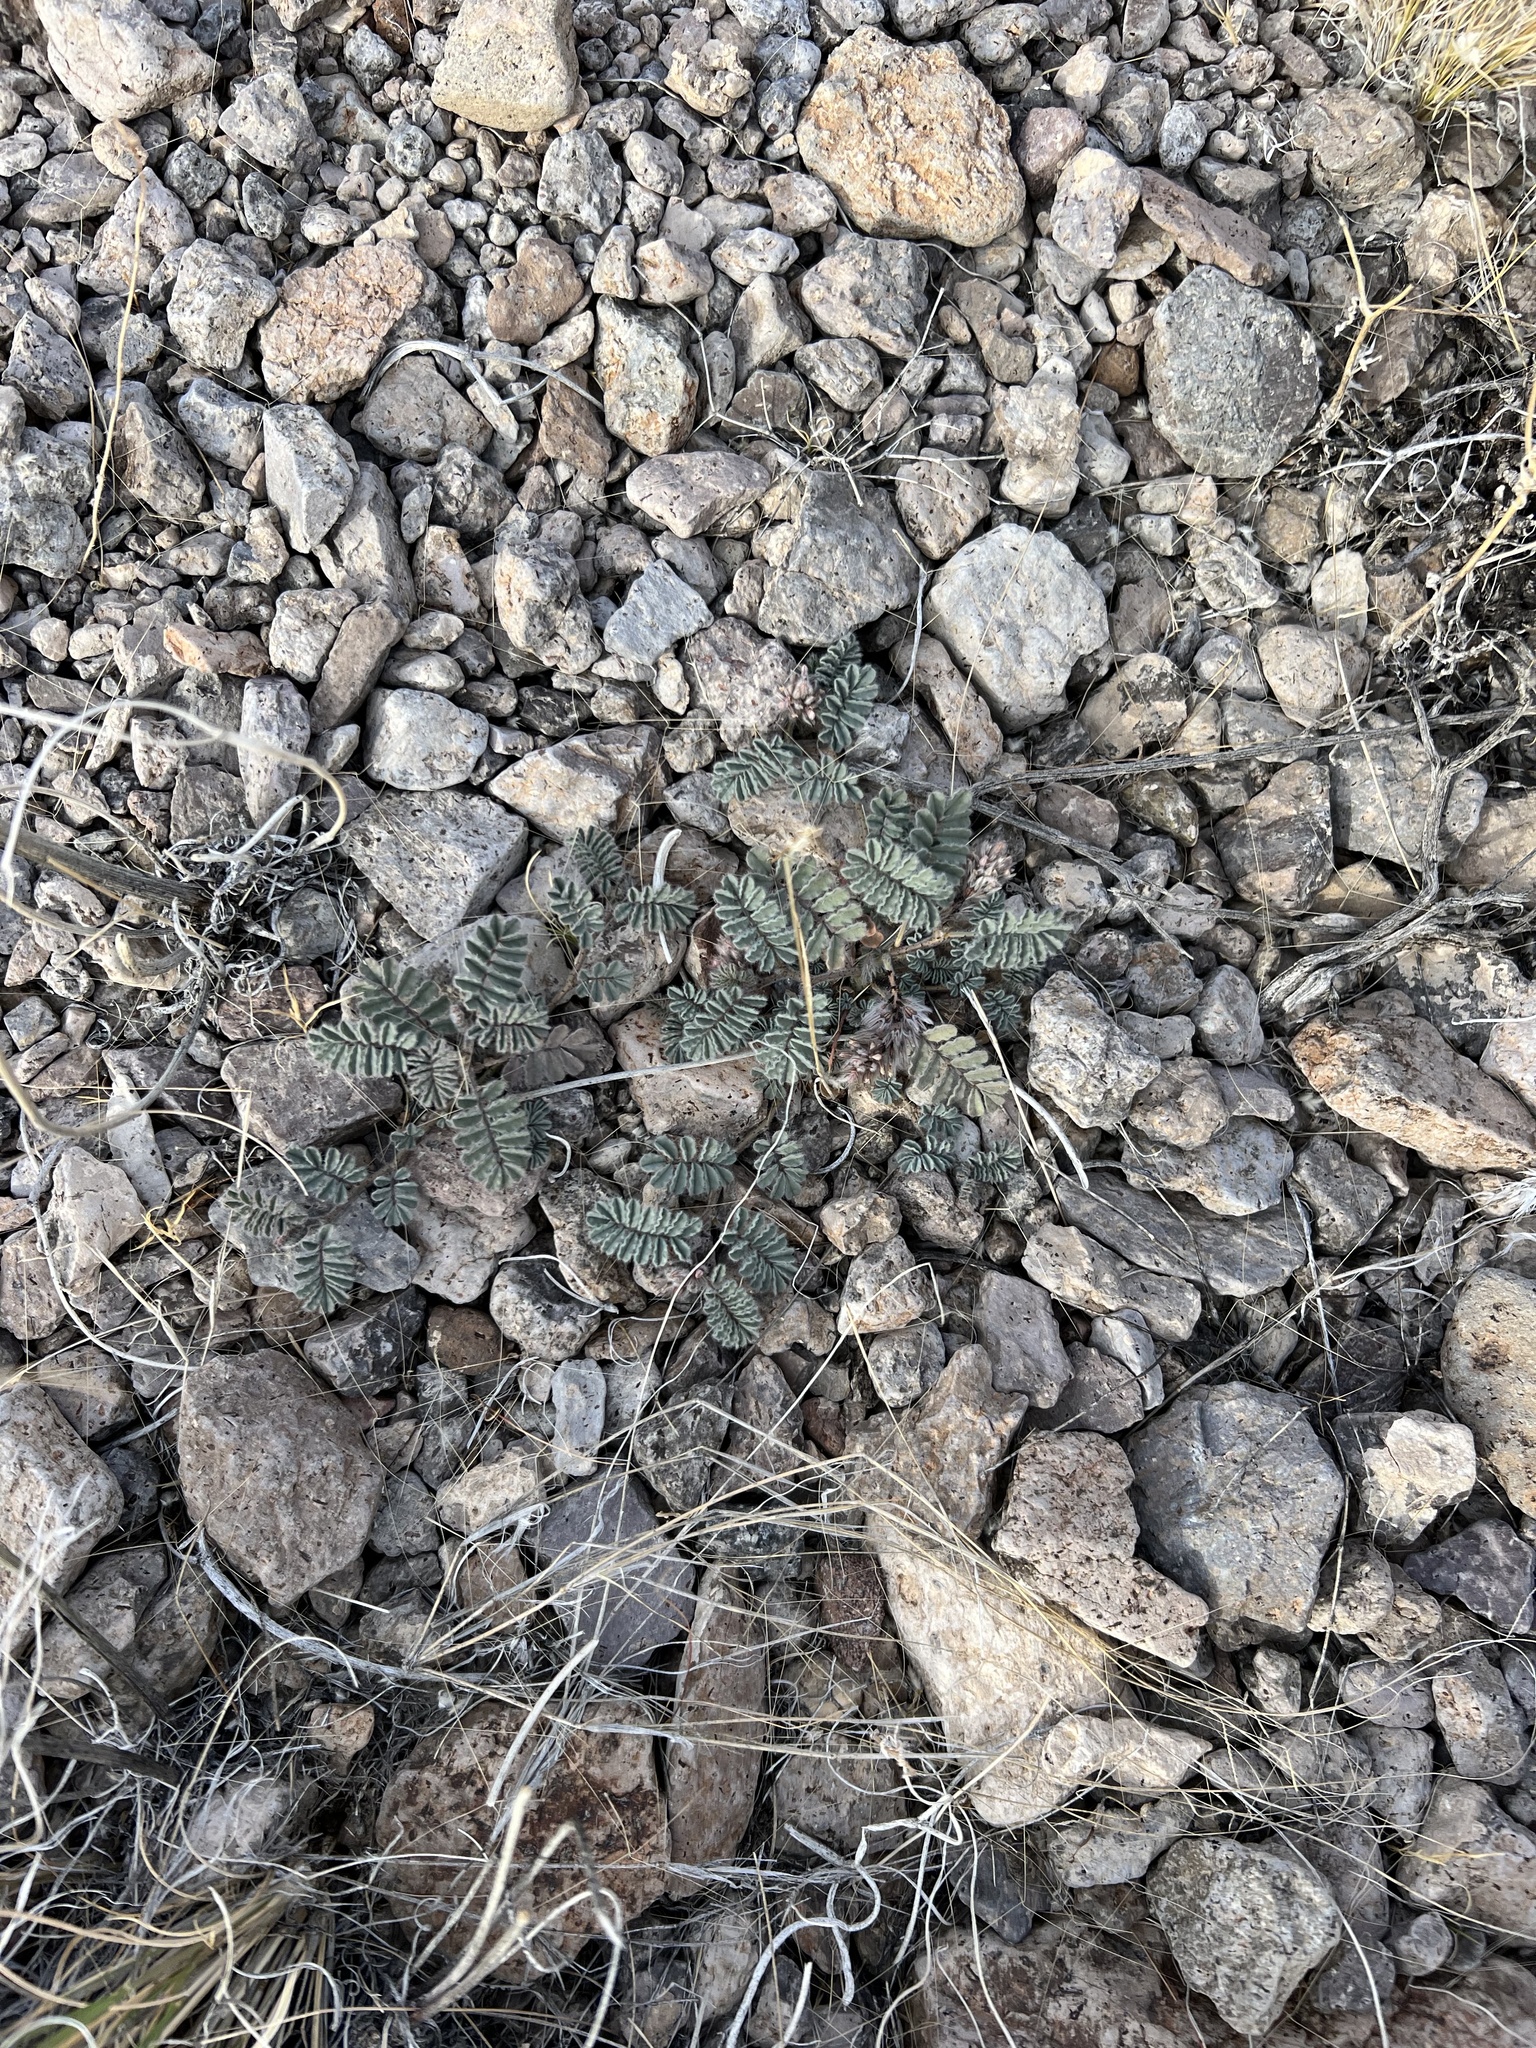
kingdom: Plantae
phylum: Tracheophyta
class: Magnoliopsida
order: Fabales
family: Fabaceae
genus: Dalea
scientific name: Dalea mollissima
